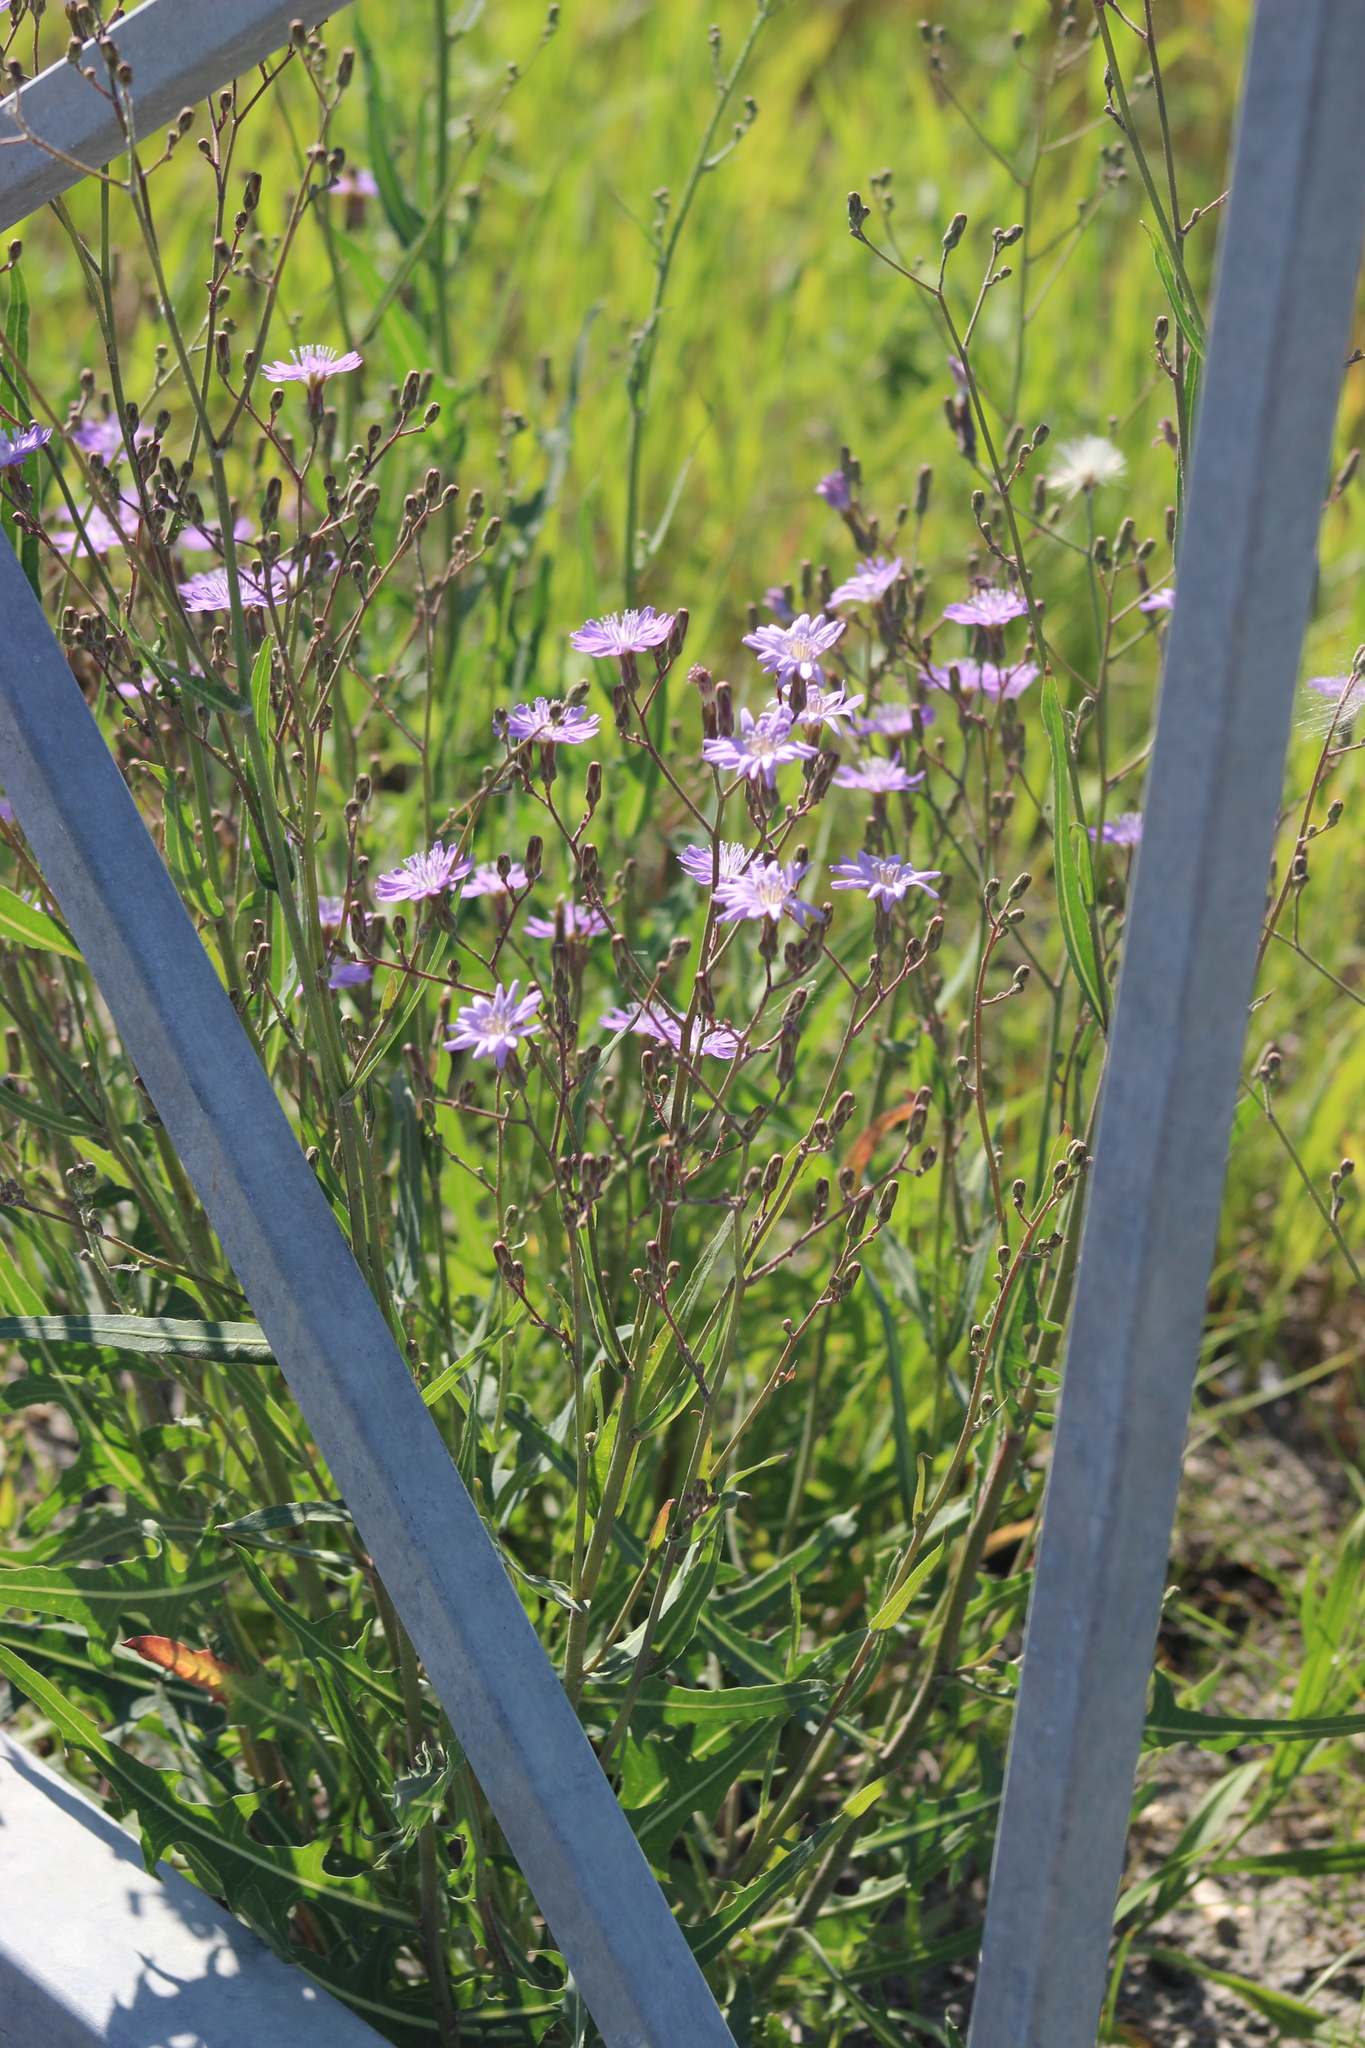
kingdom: Plantae
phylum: Tracheophyta
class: Magnoliopsida
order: Asterales
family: Asteraceae
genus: Lactuca
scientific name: Lactuca tatarica
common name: Blue lettuce
